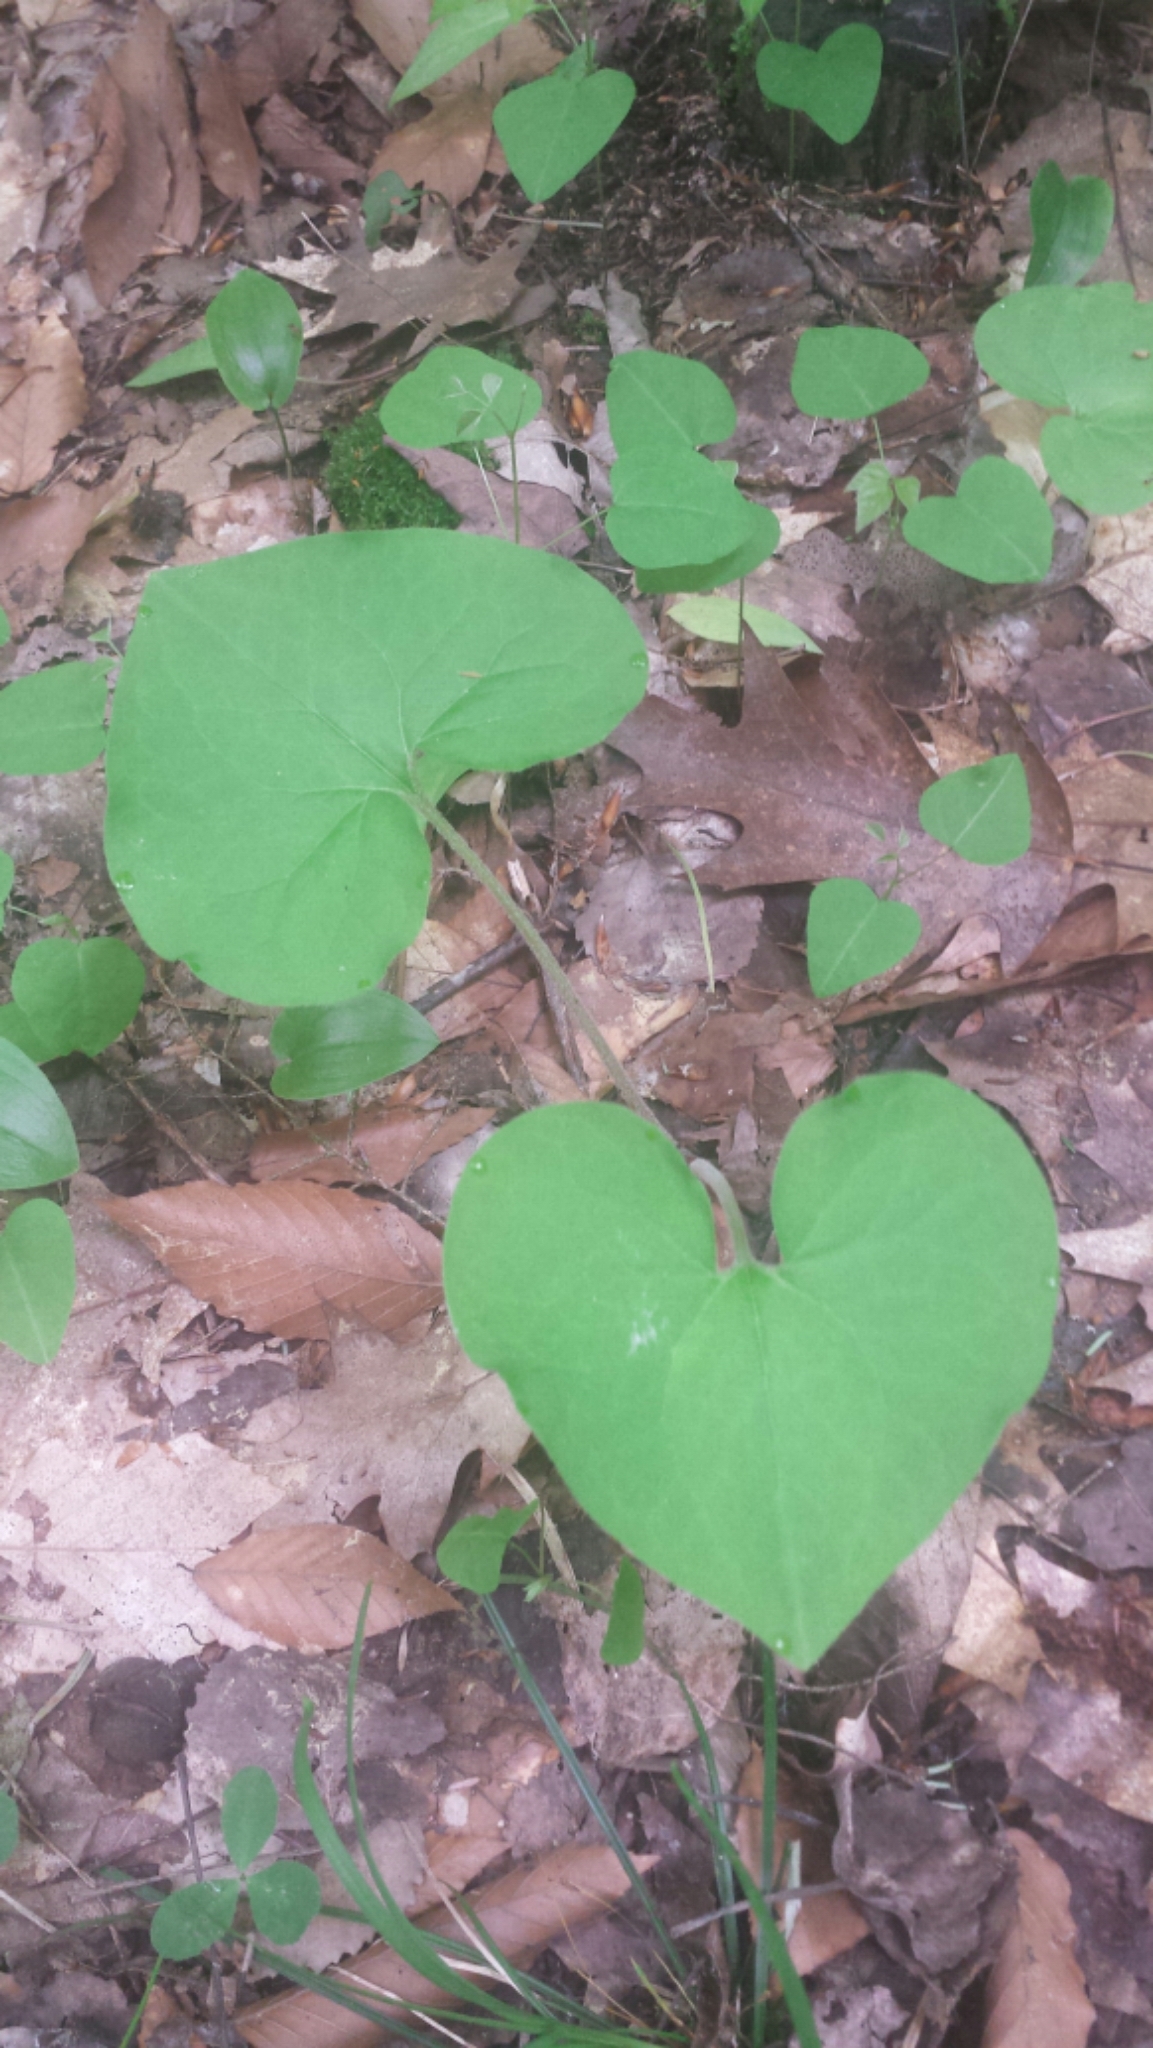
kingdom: Plantae
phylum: Tracheophyta
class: Magnoliopsida
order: Piperales
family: Aristolochiaceae
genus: Asarum
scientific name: Asarum canadense
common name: Wild ginger
